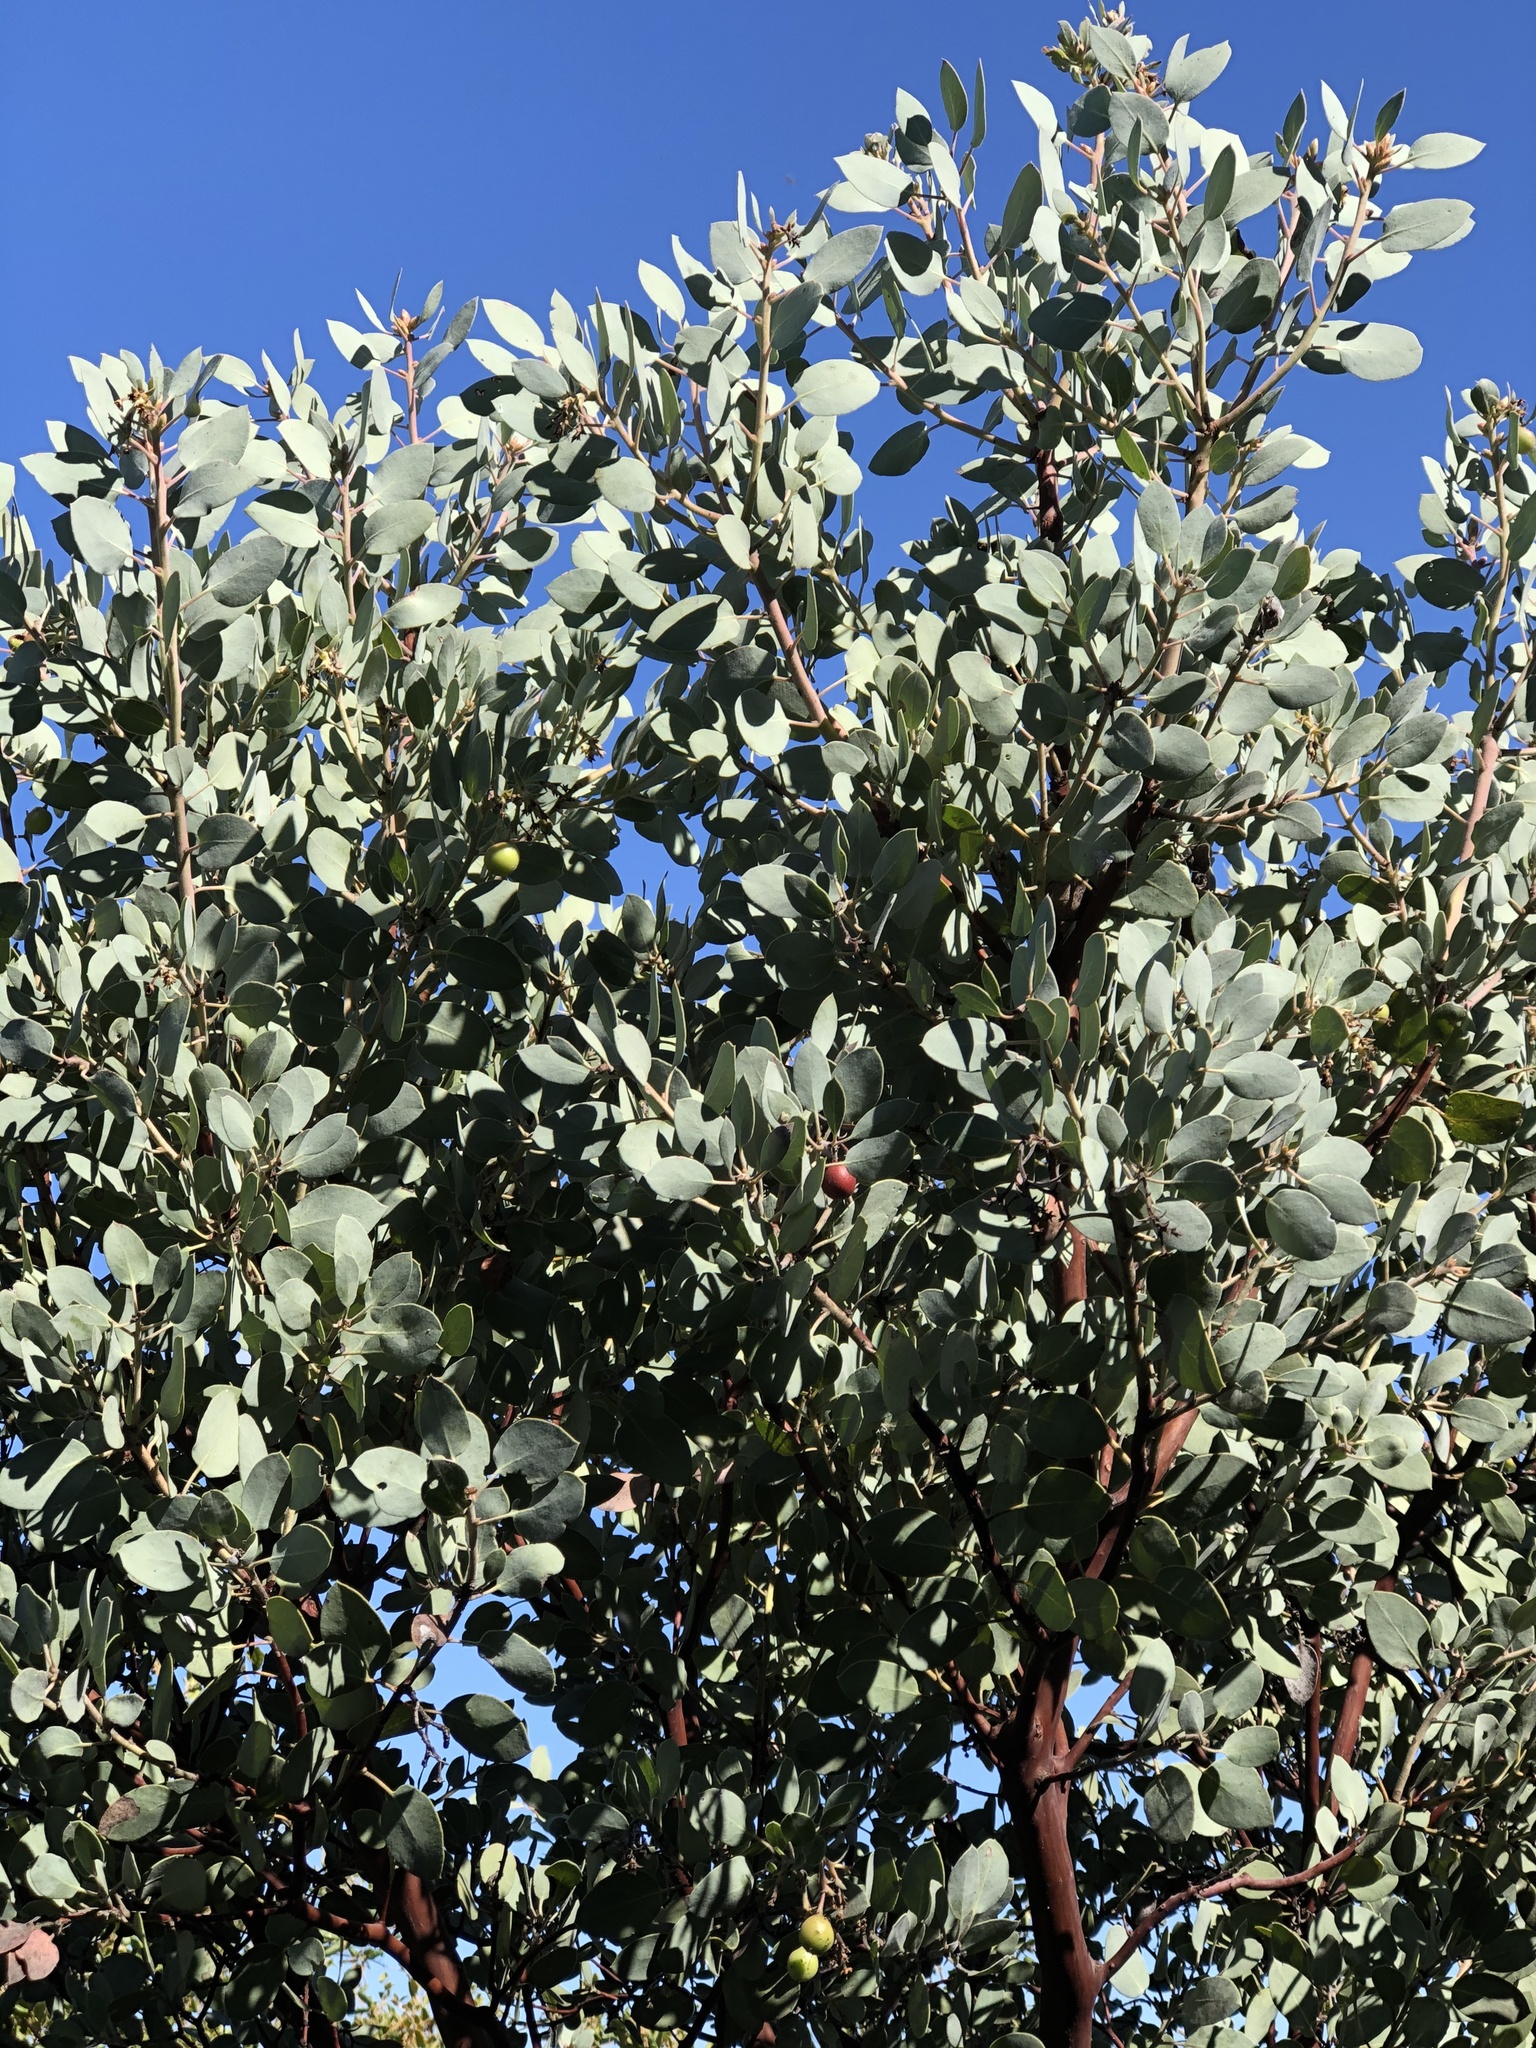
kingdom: Plantae
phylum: Tracheophyta
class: Magnoliopsida
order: Ericales
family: Ericaceae
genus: Arctostaphylos
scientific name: Arctostaphylos glauca
